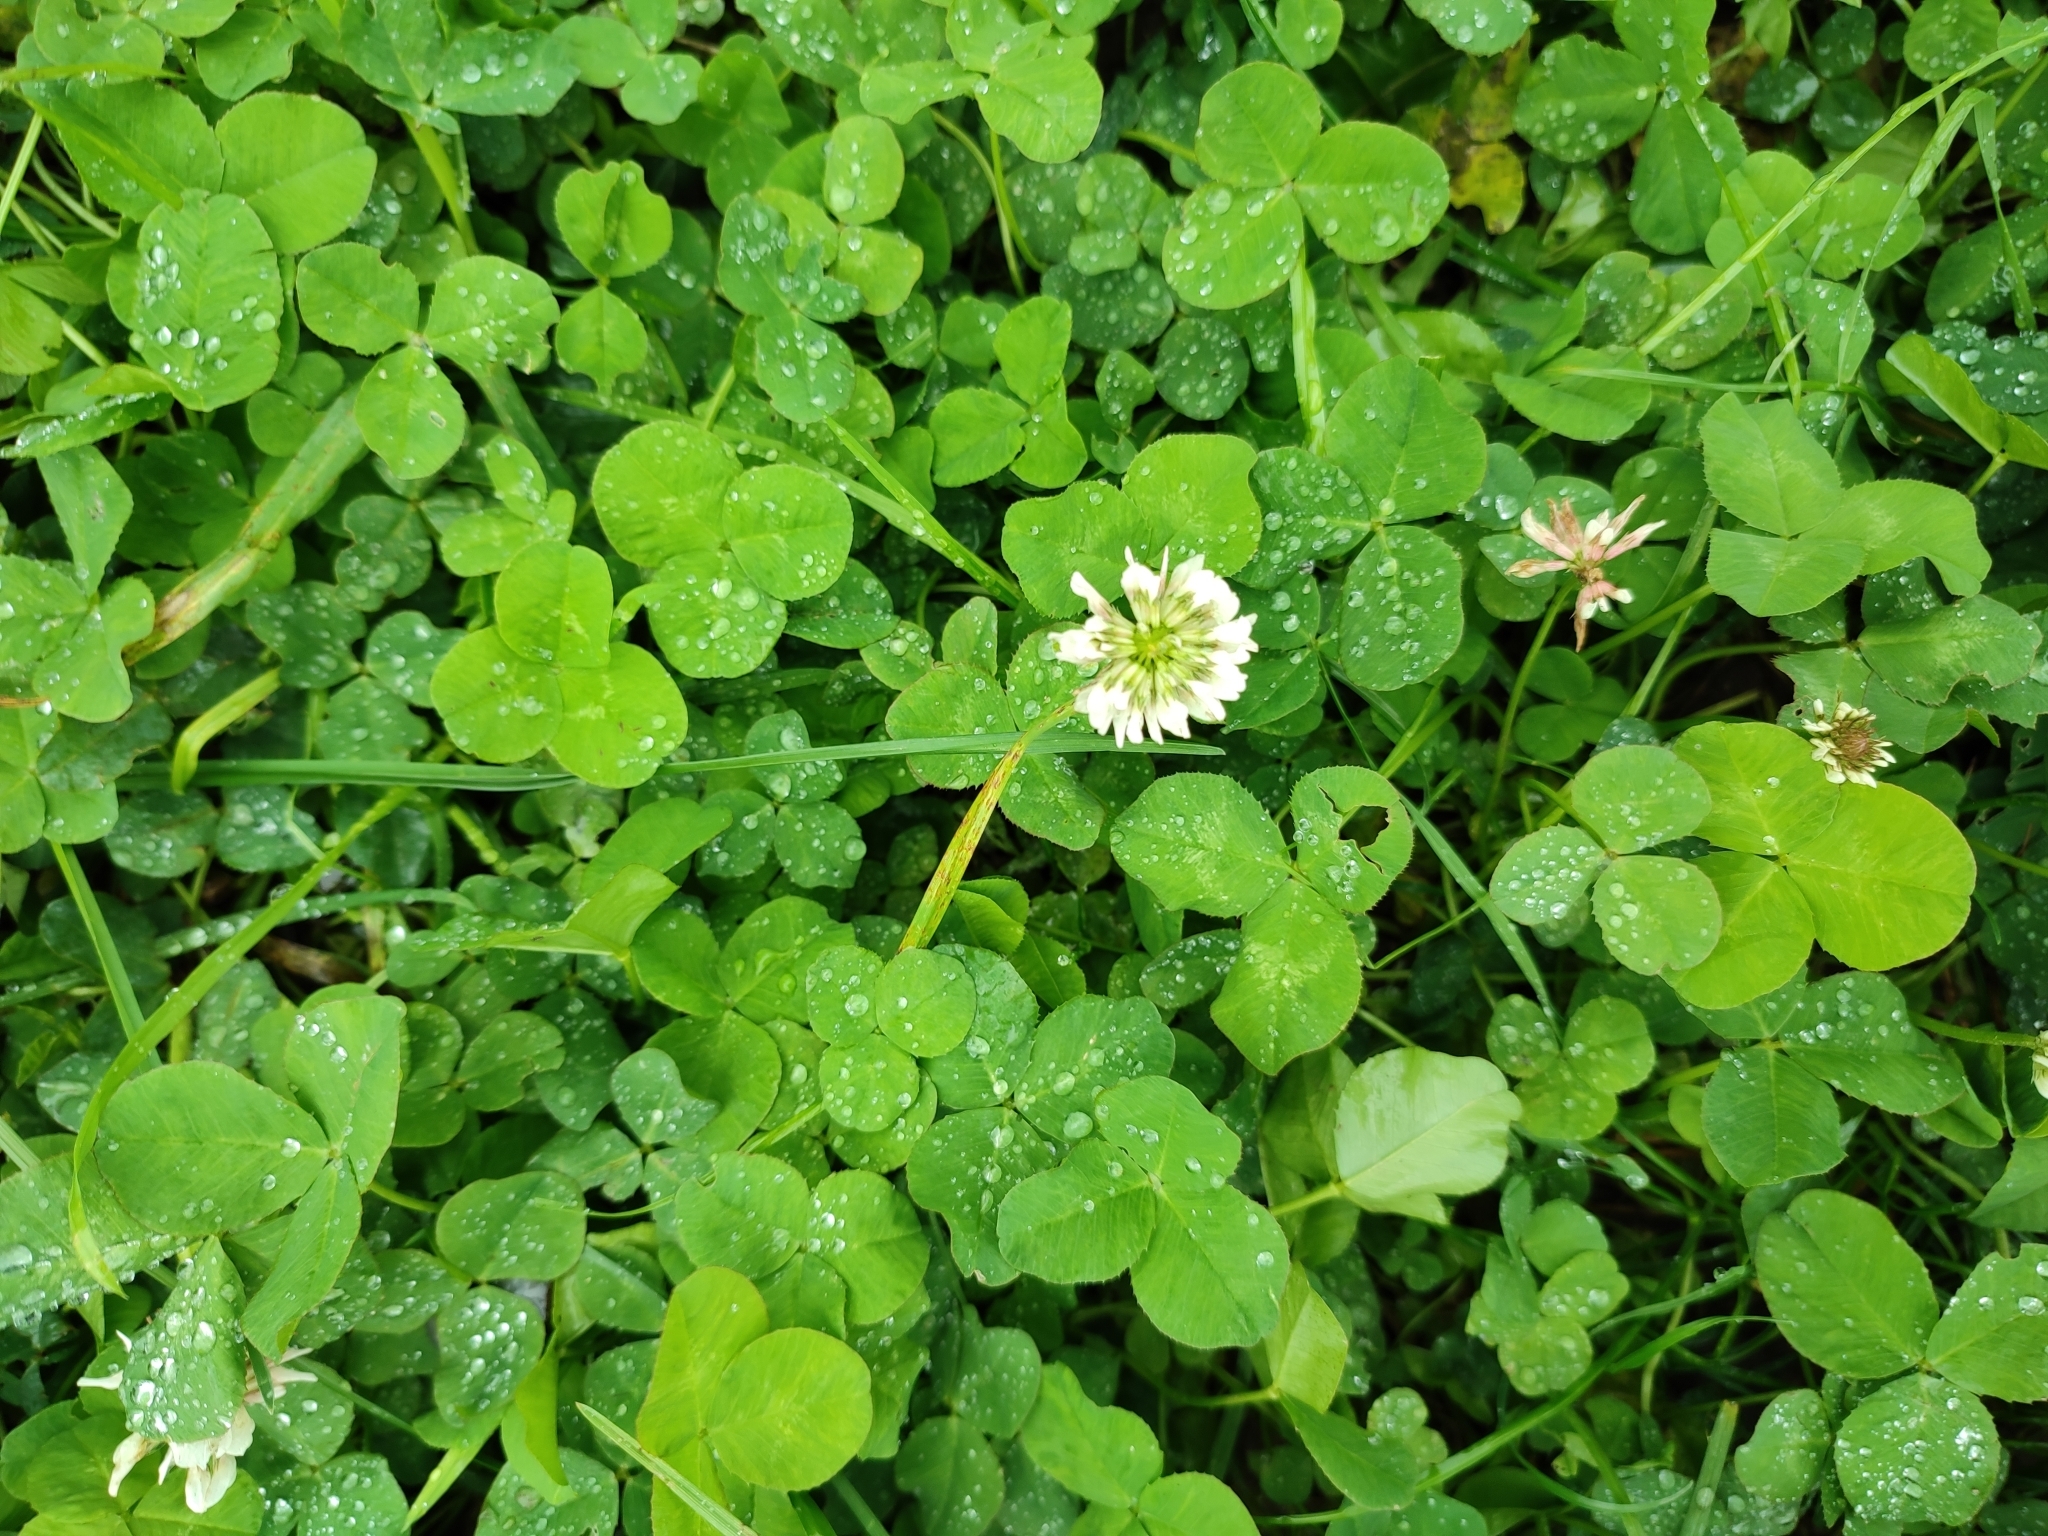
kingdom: Plantae
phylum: Tracheophyta
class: Magnoliopsida
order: Fabales
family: Fabaceae
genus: Trifolium
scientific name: Trifolium repens
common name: White clover
